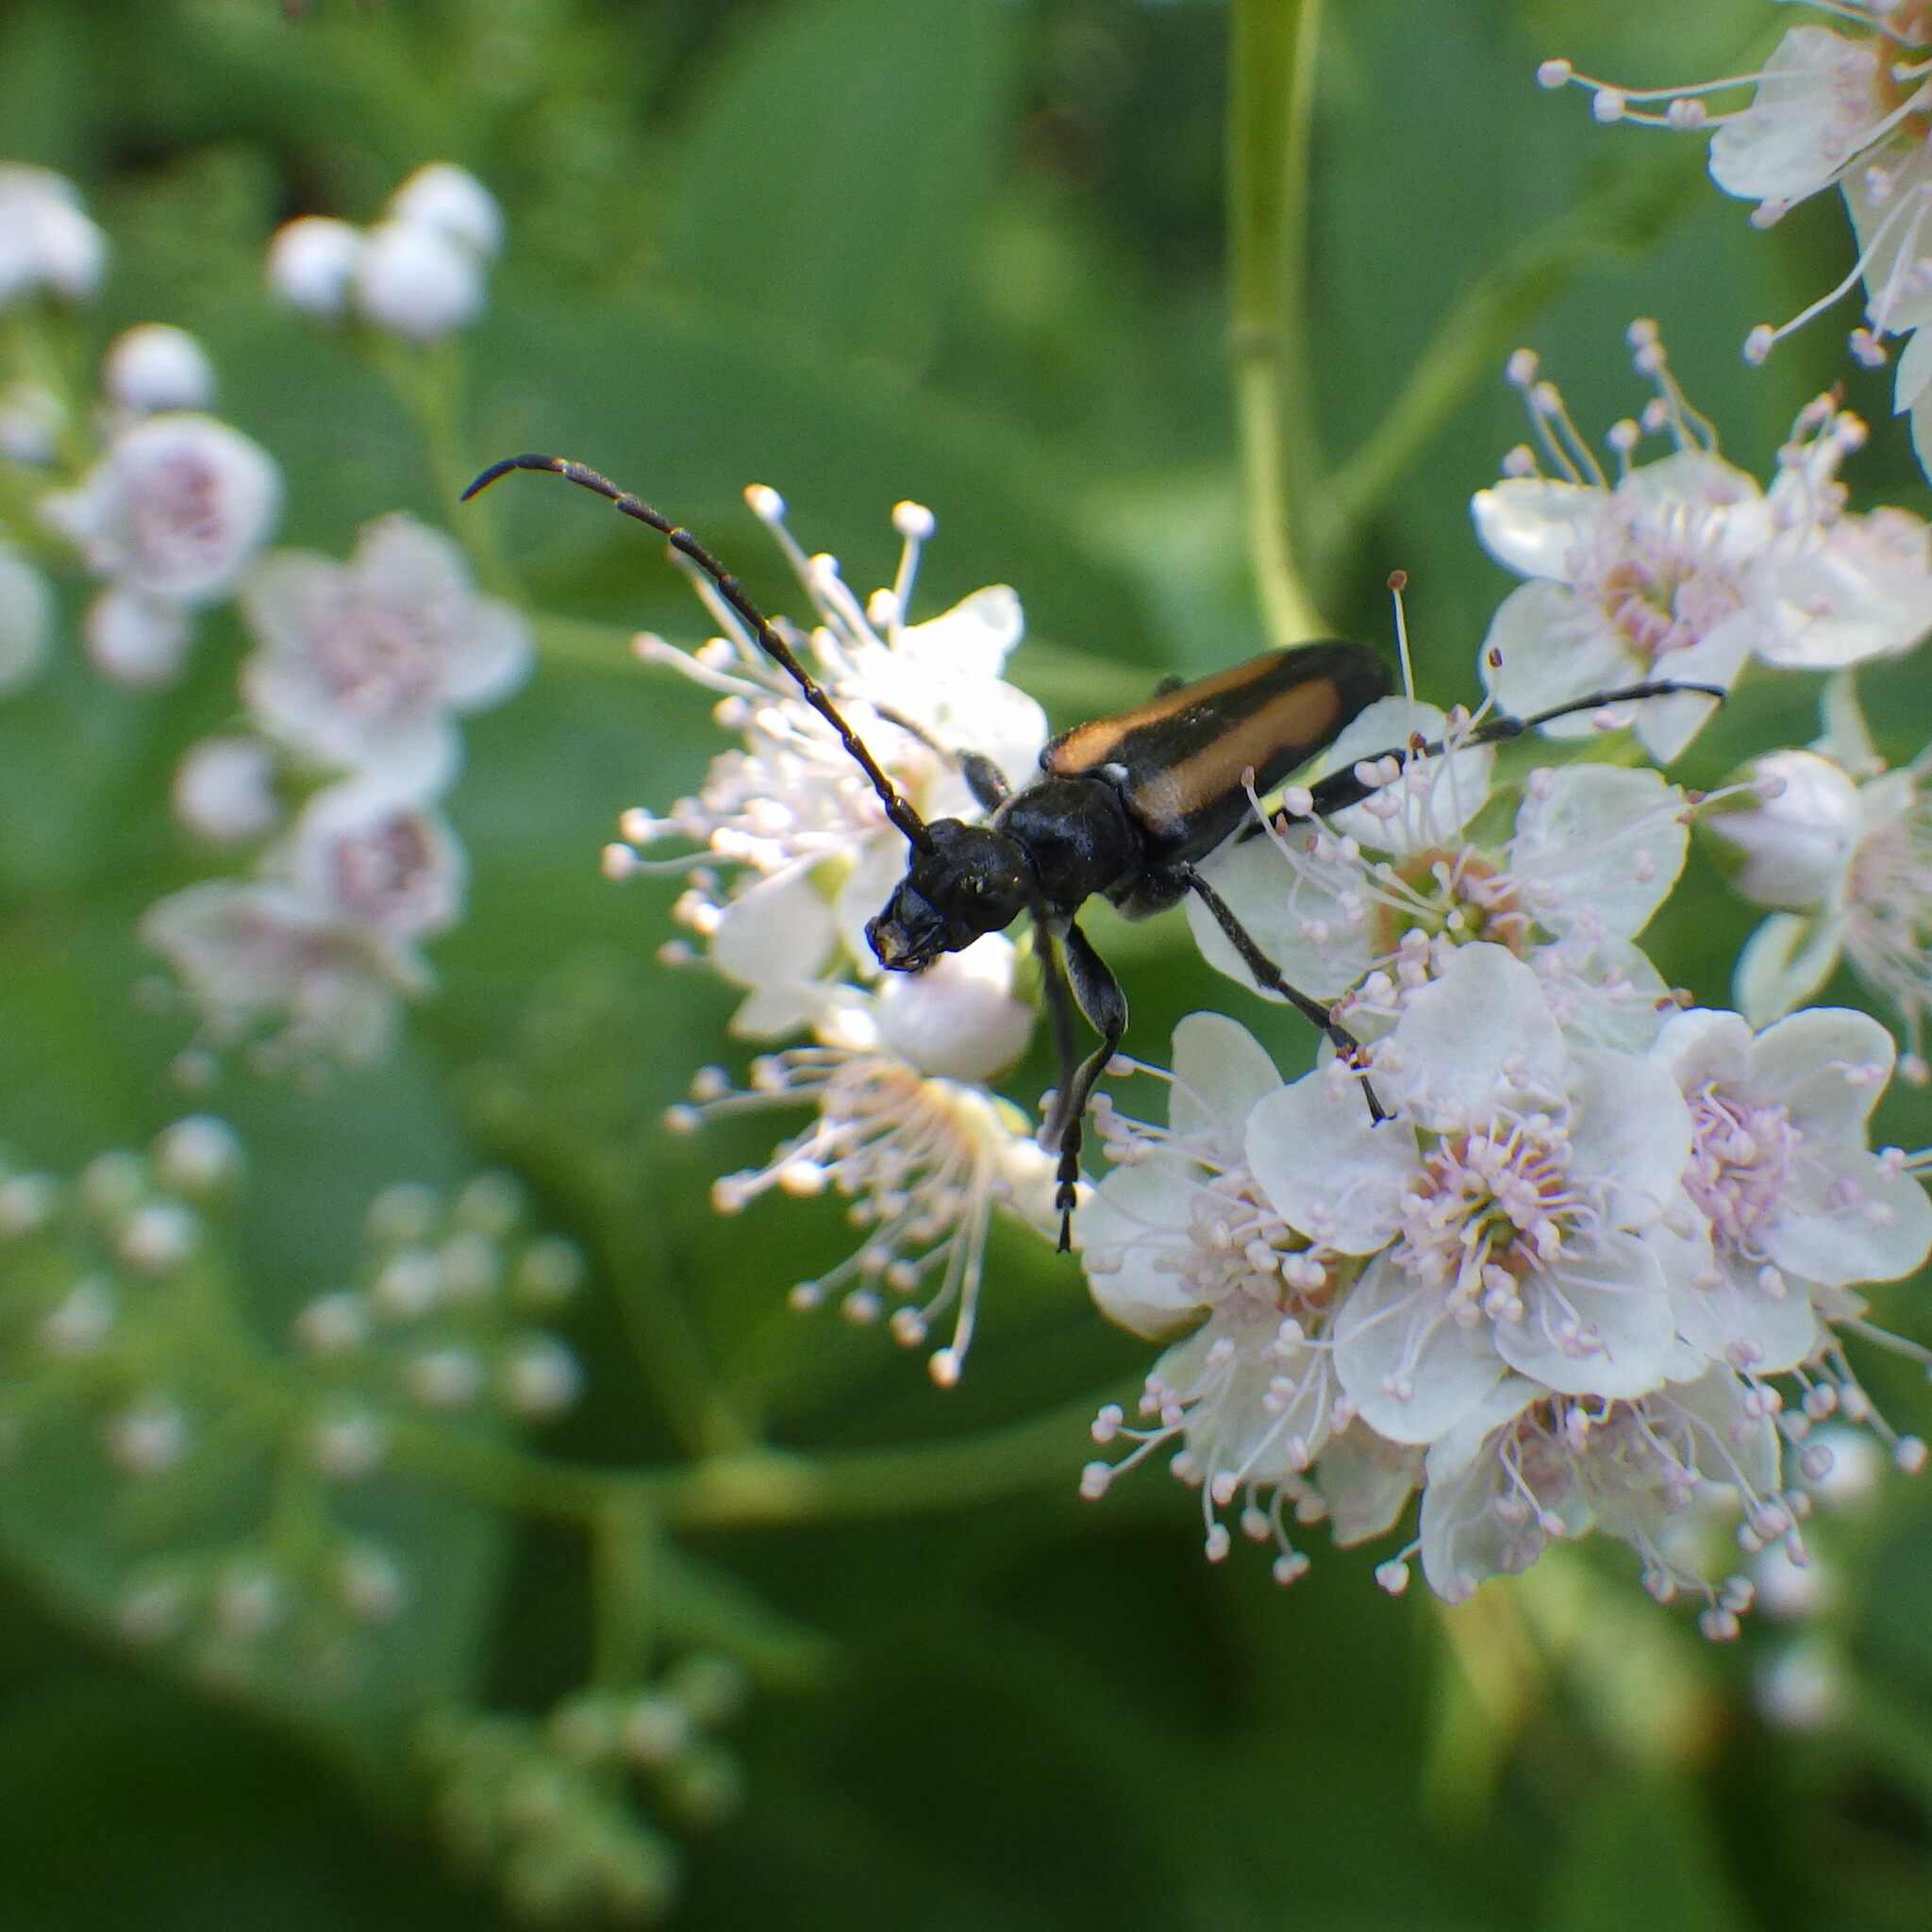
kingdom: Animalia
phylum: Arthropoda
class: Insecta
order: Coleoptera
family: Cerambycidae
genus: Strangalepta
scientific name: Strangalepta abbreviata
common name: Strangalepta flower longhorn beetle
